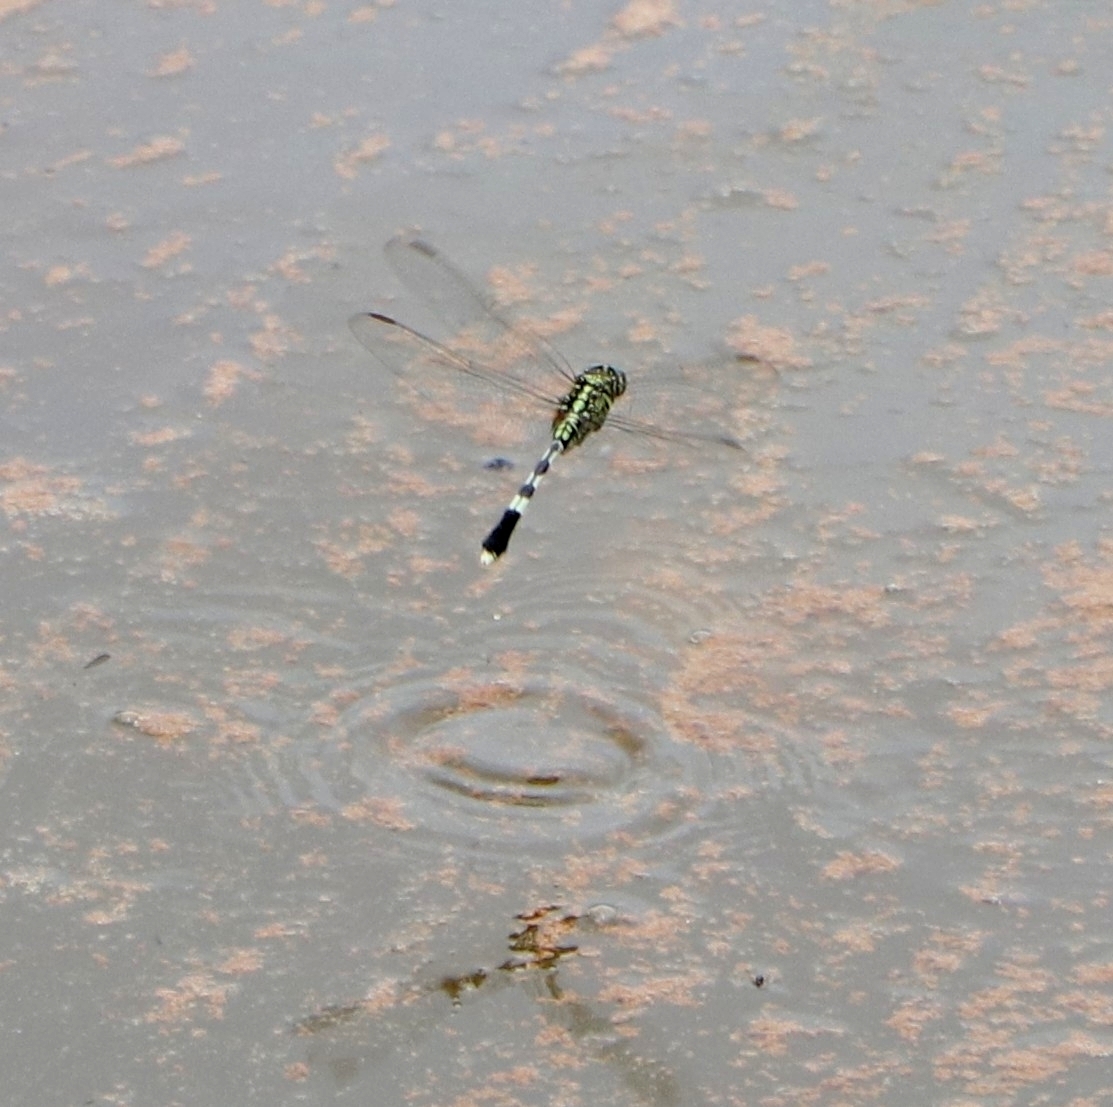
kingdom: Animalia
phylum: Arthropoda
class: Insecta
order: Odonata
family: Libellulidae
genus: Orthetrum
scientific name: Orthetrum sabina
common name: Slender skimmer
